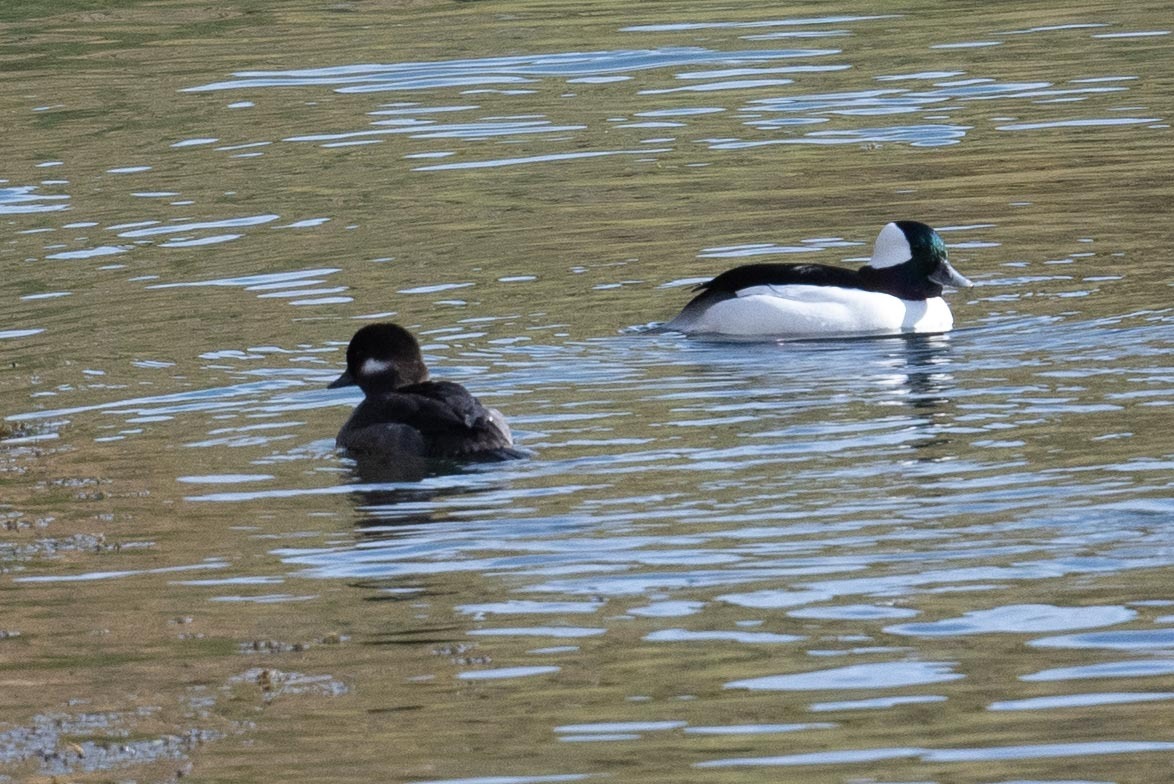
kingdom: Animalia
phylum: Chordata
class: Aves
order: Anseriformes
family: Anatidae
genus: Bucephala
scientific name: Bucephala albeola
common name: Bufflehead
